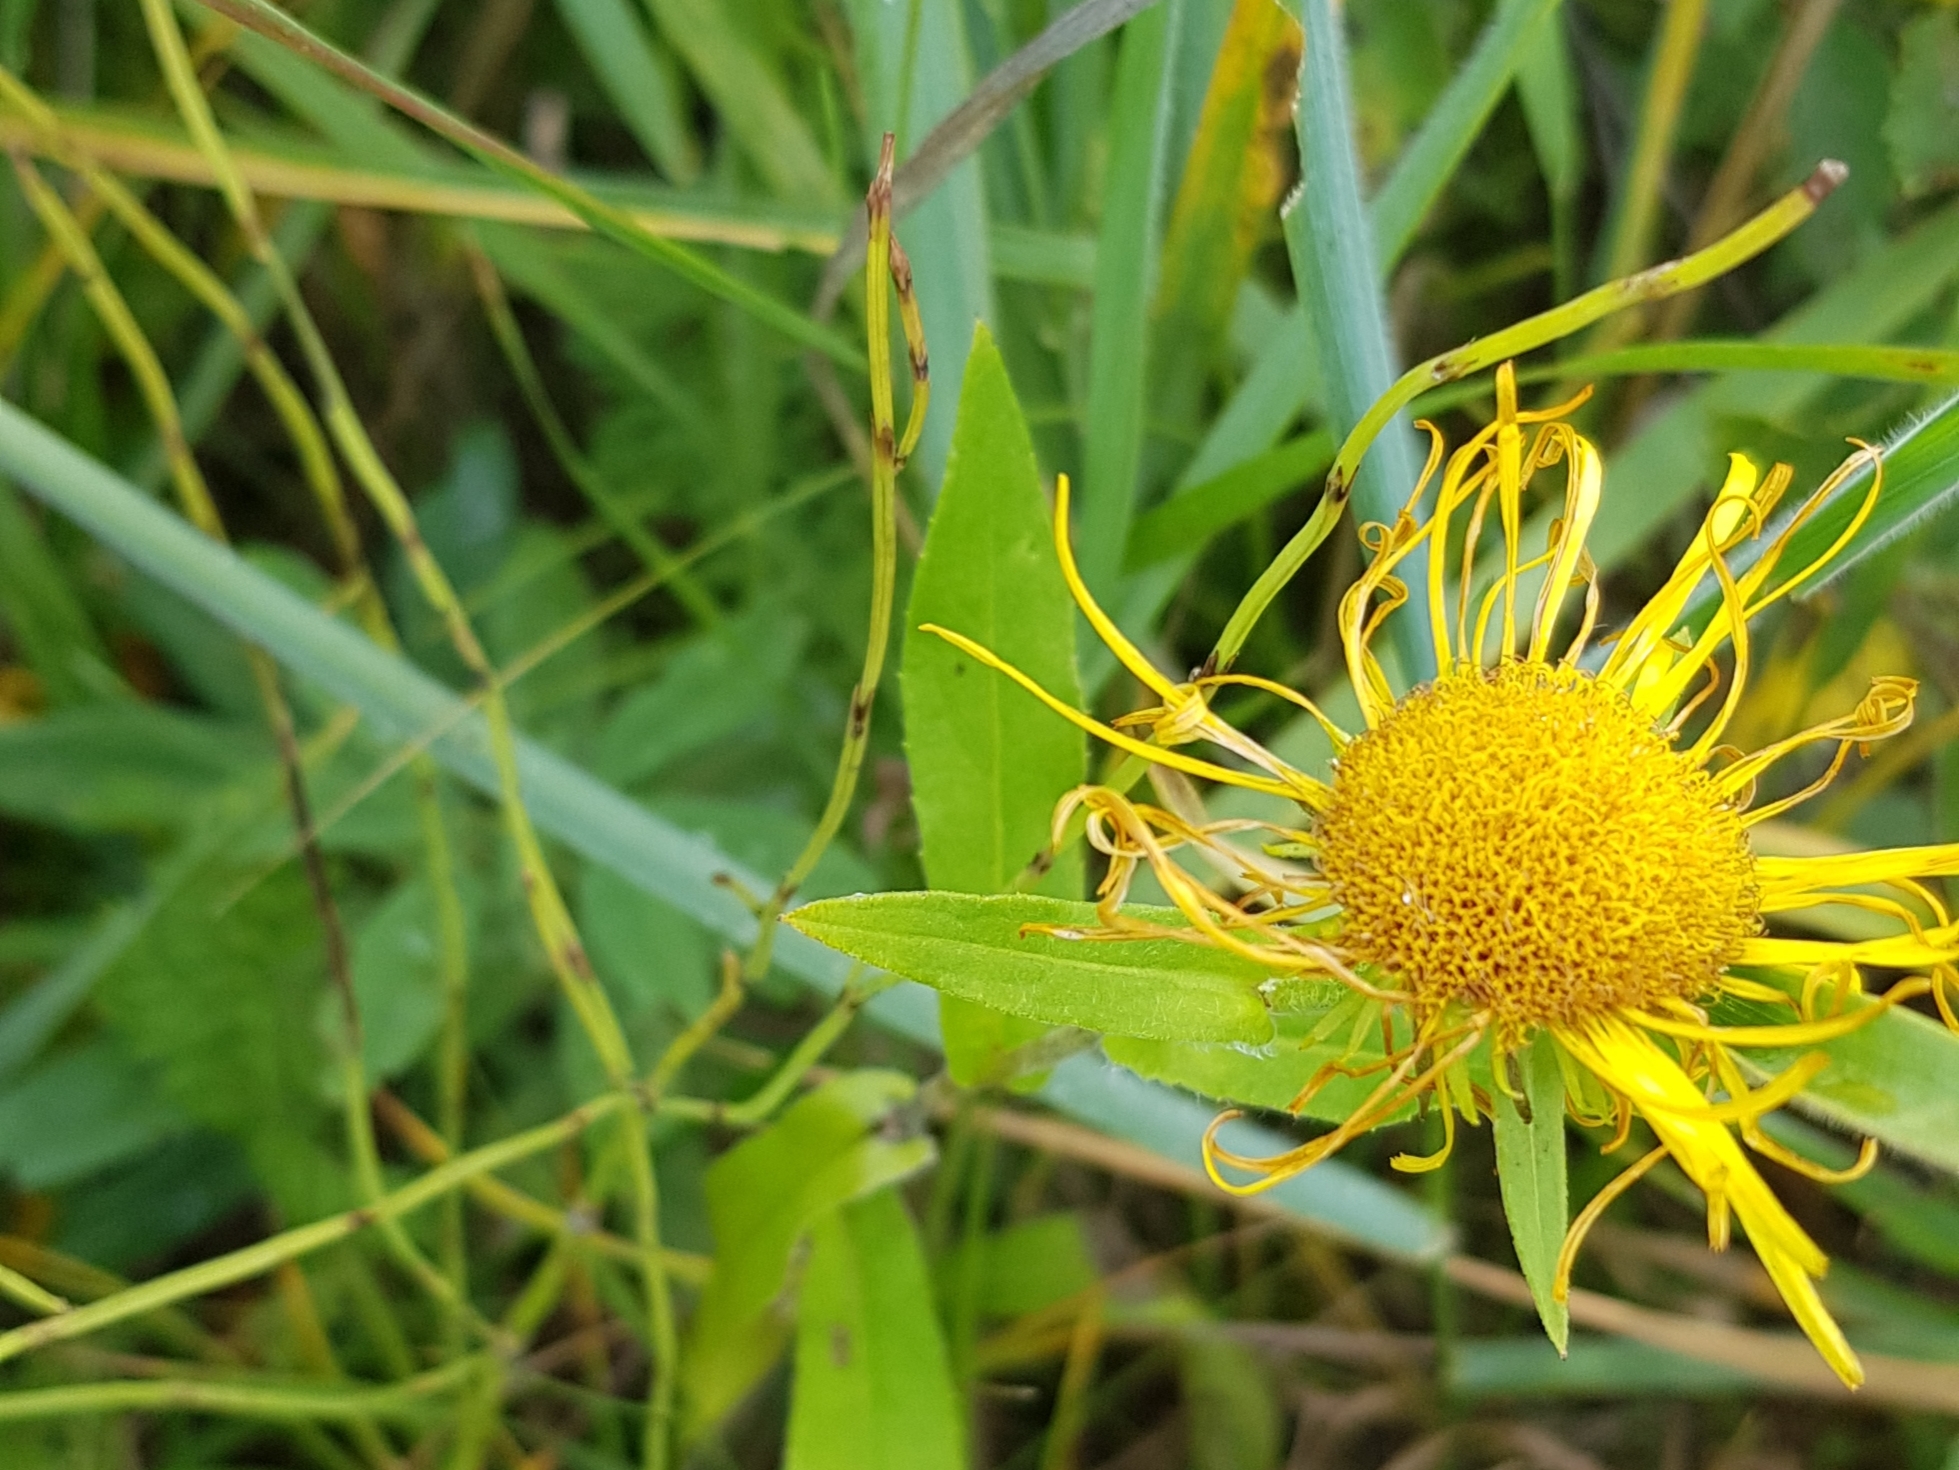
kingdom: Plantae
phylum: Tracheophyta
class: Magnoliopsida
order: Asterales
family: Asteraceae
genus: Pentanema
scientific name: Pentanema britannicum
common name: British elecampane
